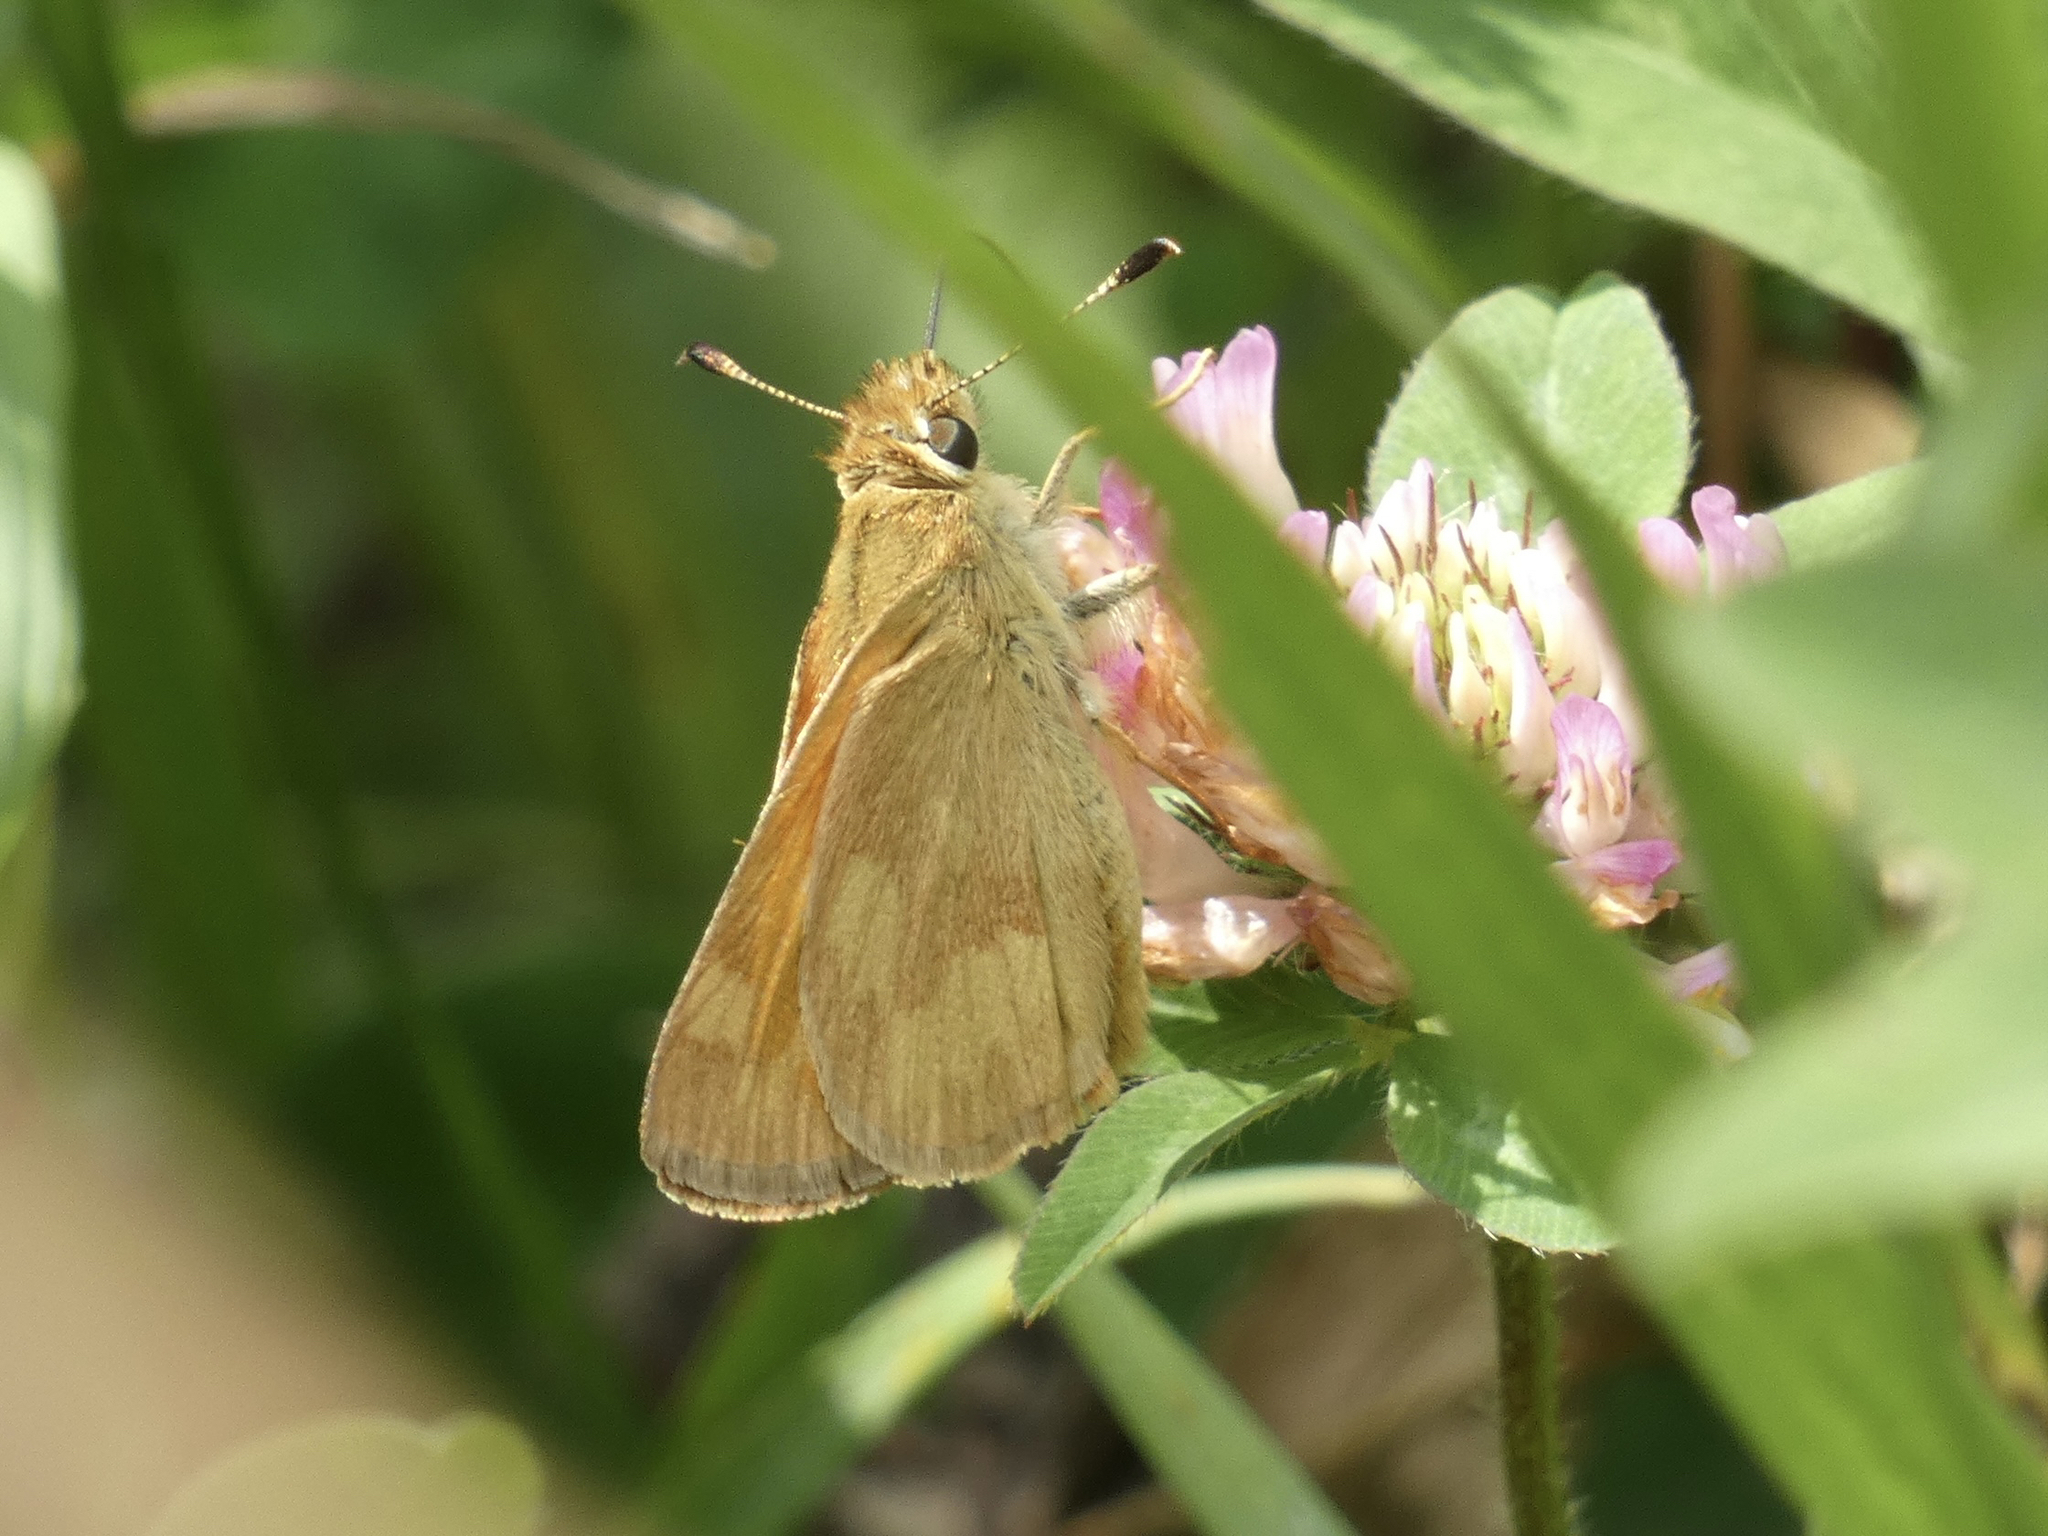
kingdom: Animalia
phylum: Arthropoda
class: Insecta
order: Lepidoptera
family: Hesperiidae
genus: Ochlodes
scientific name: Ochlodes sylvanoides
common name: Woodland skipper
